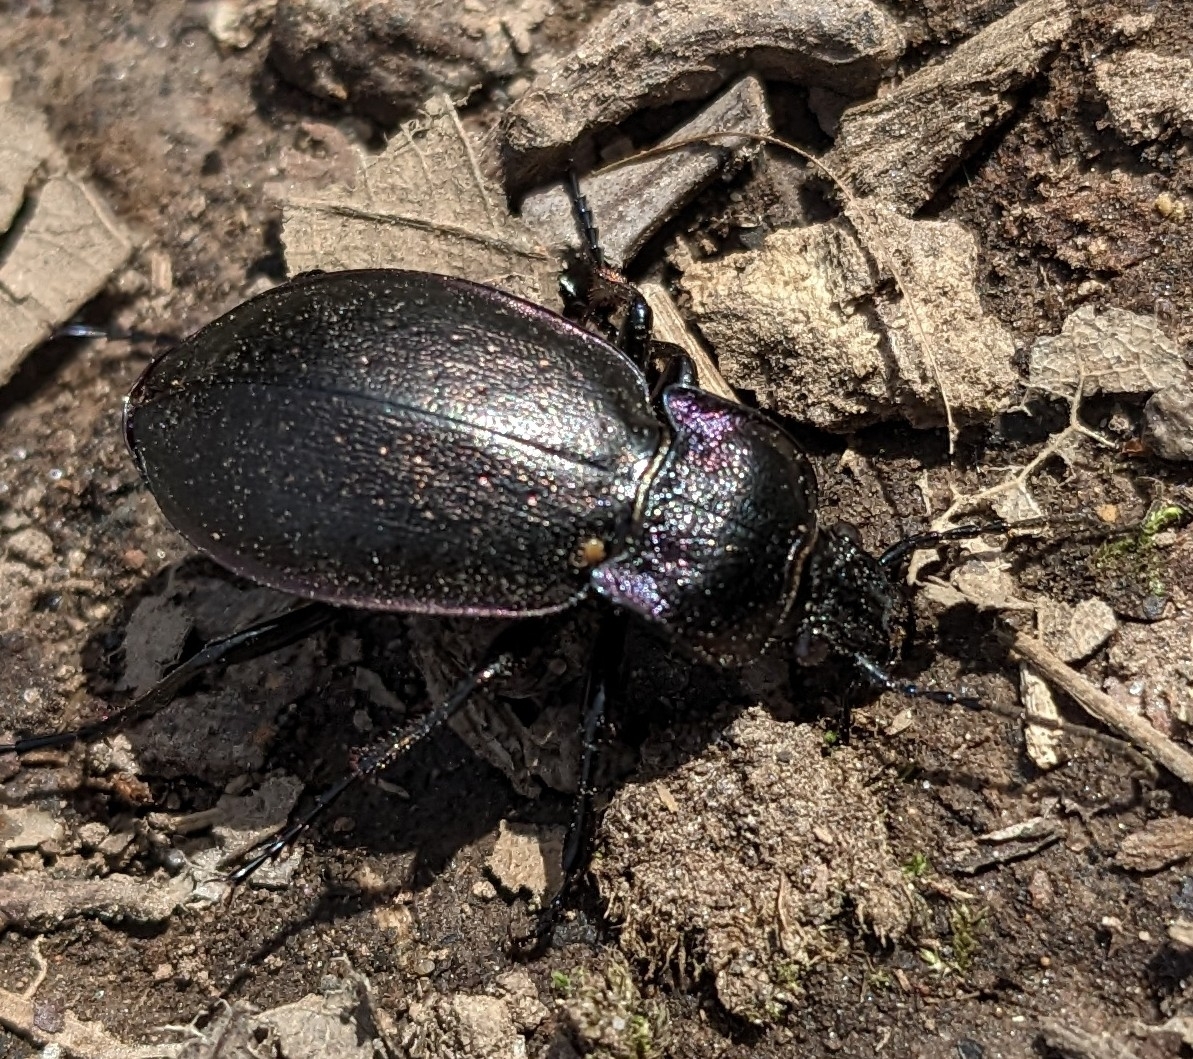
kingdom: Animalia
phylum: Arthropoda
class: Insecta
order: Coleoptera
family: Carabidae
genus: Carabus
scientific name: Carabus nemoralis
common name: European ground beetle
